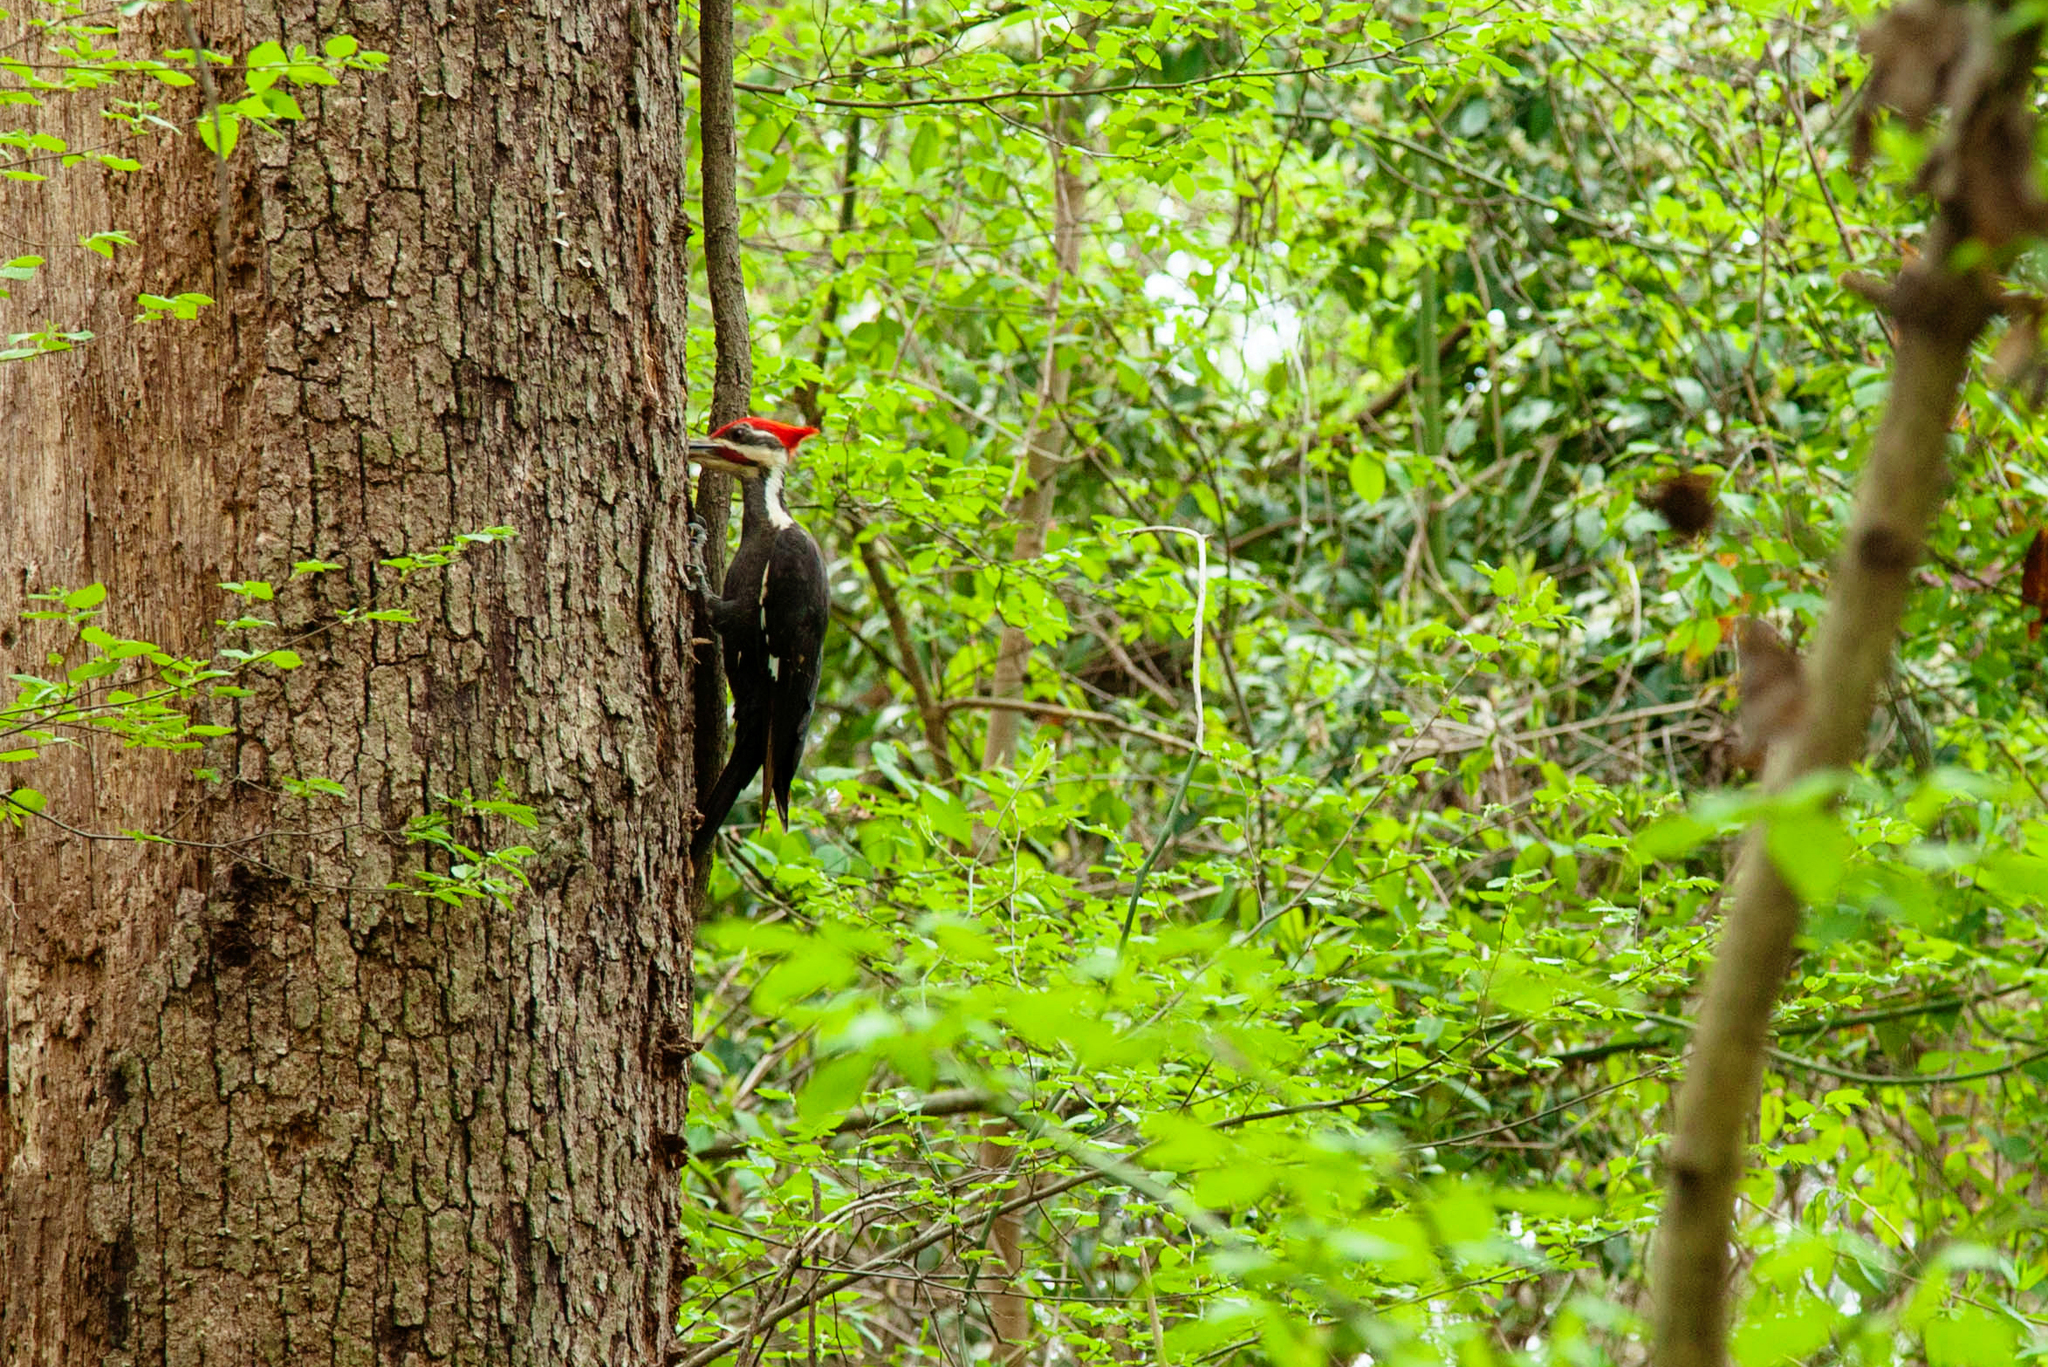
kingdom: Animalia
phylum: Chordata
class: Aves
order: Piciformes
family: Picidae
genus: Dryocopus
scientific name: Dryocopus pileatus
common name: Pileated woodpecker
